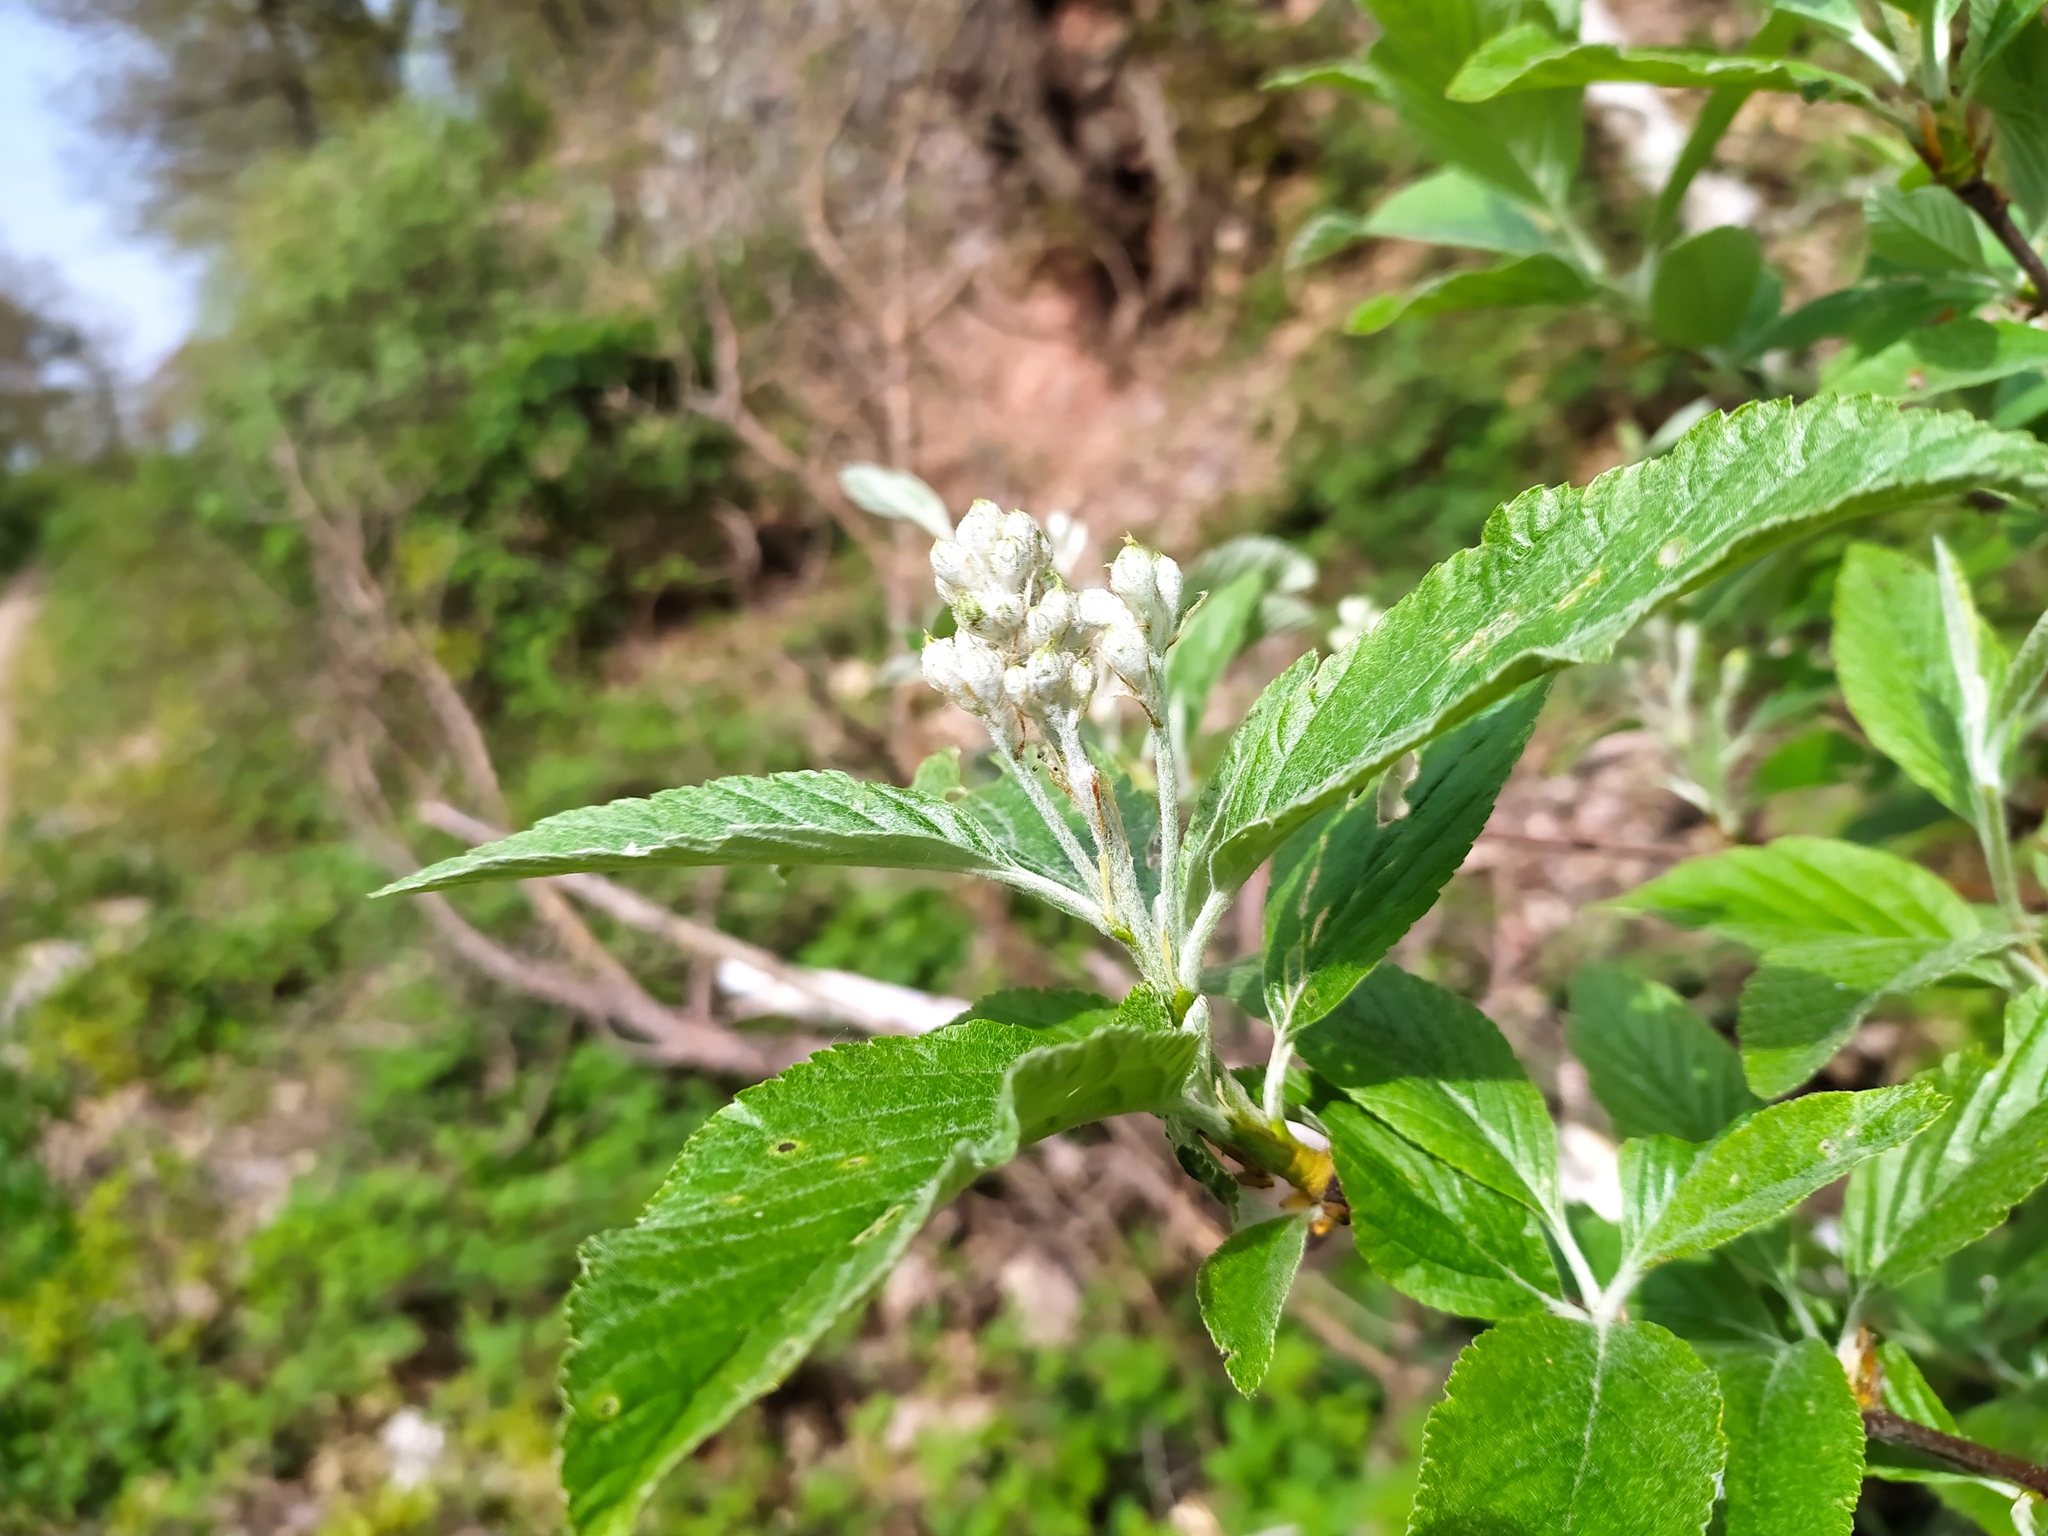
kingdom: Plantae
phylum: Tracheophyta
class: Magnoliopsida
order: Rosales
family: Rosaceae
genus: Aria
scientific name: Aria edulis
